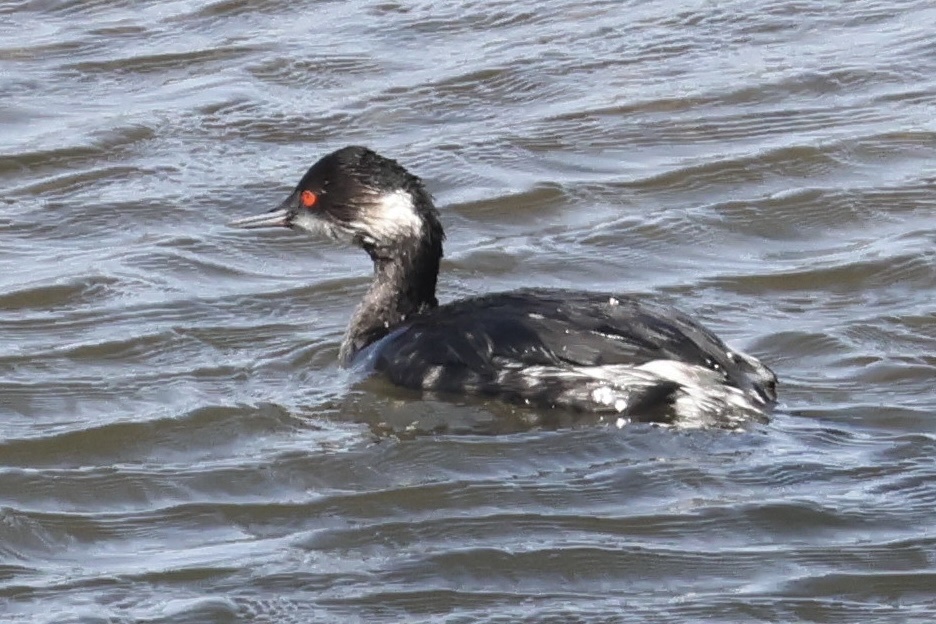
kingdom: Animalia
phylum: Chordata
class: Aves
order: Podicipediformes
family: Podicipedidae
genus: Podiceps
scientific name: Podiceps nigricollis
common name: Black-necked grebe
